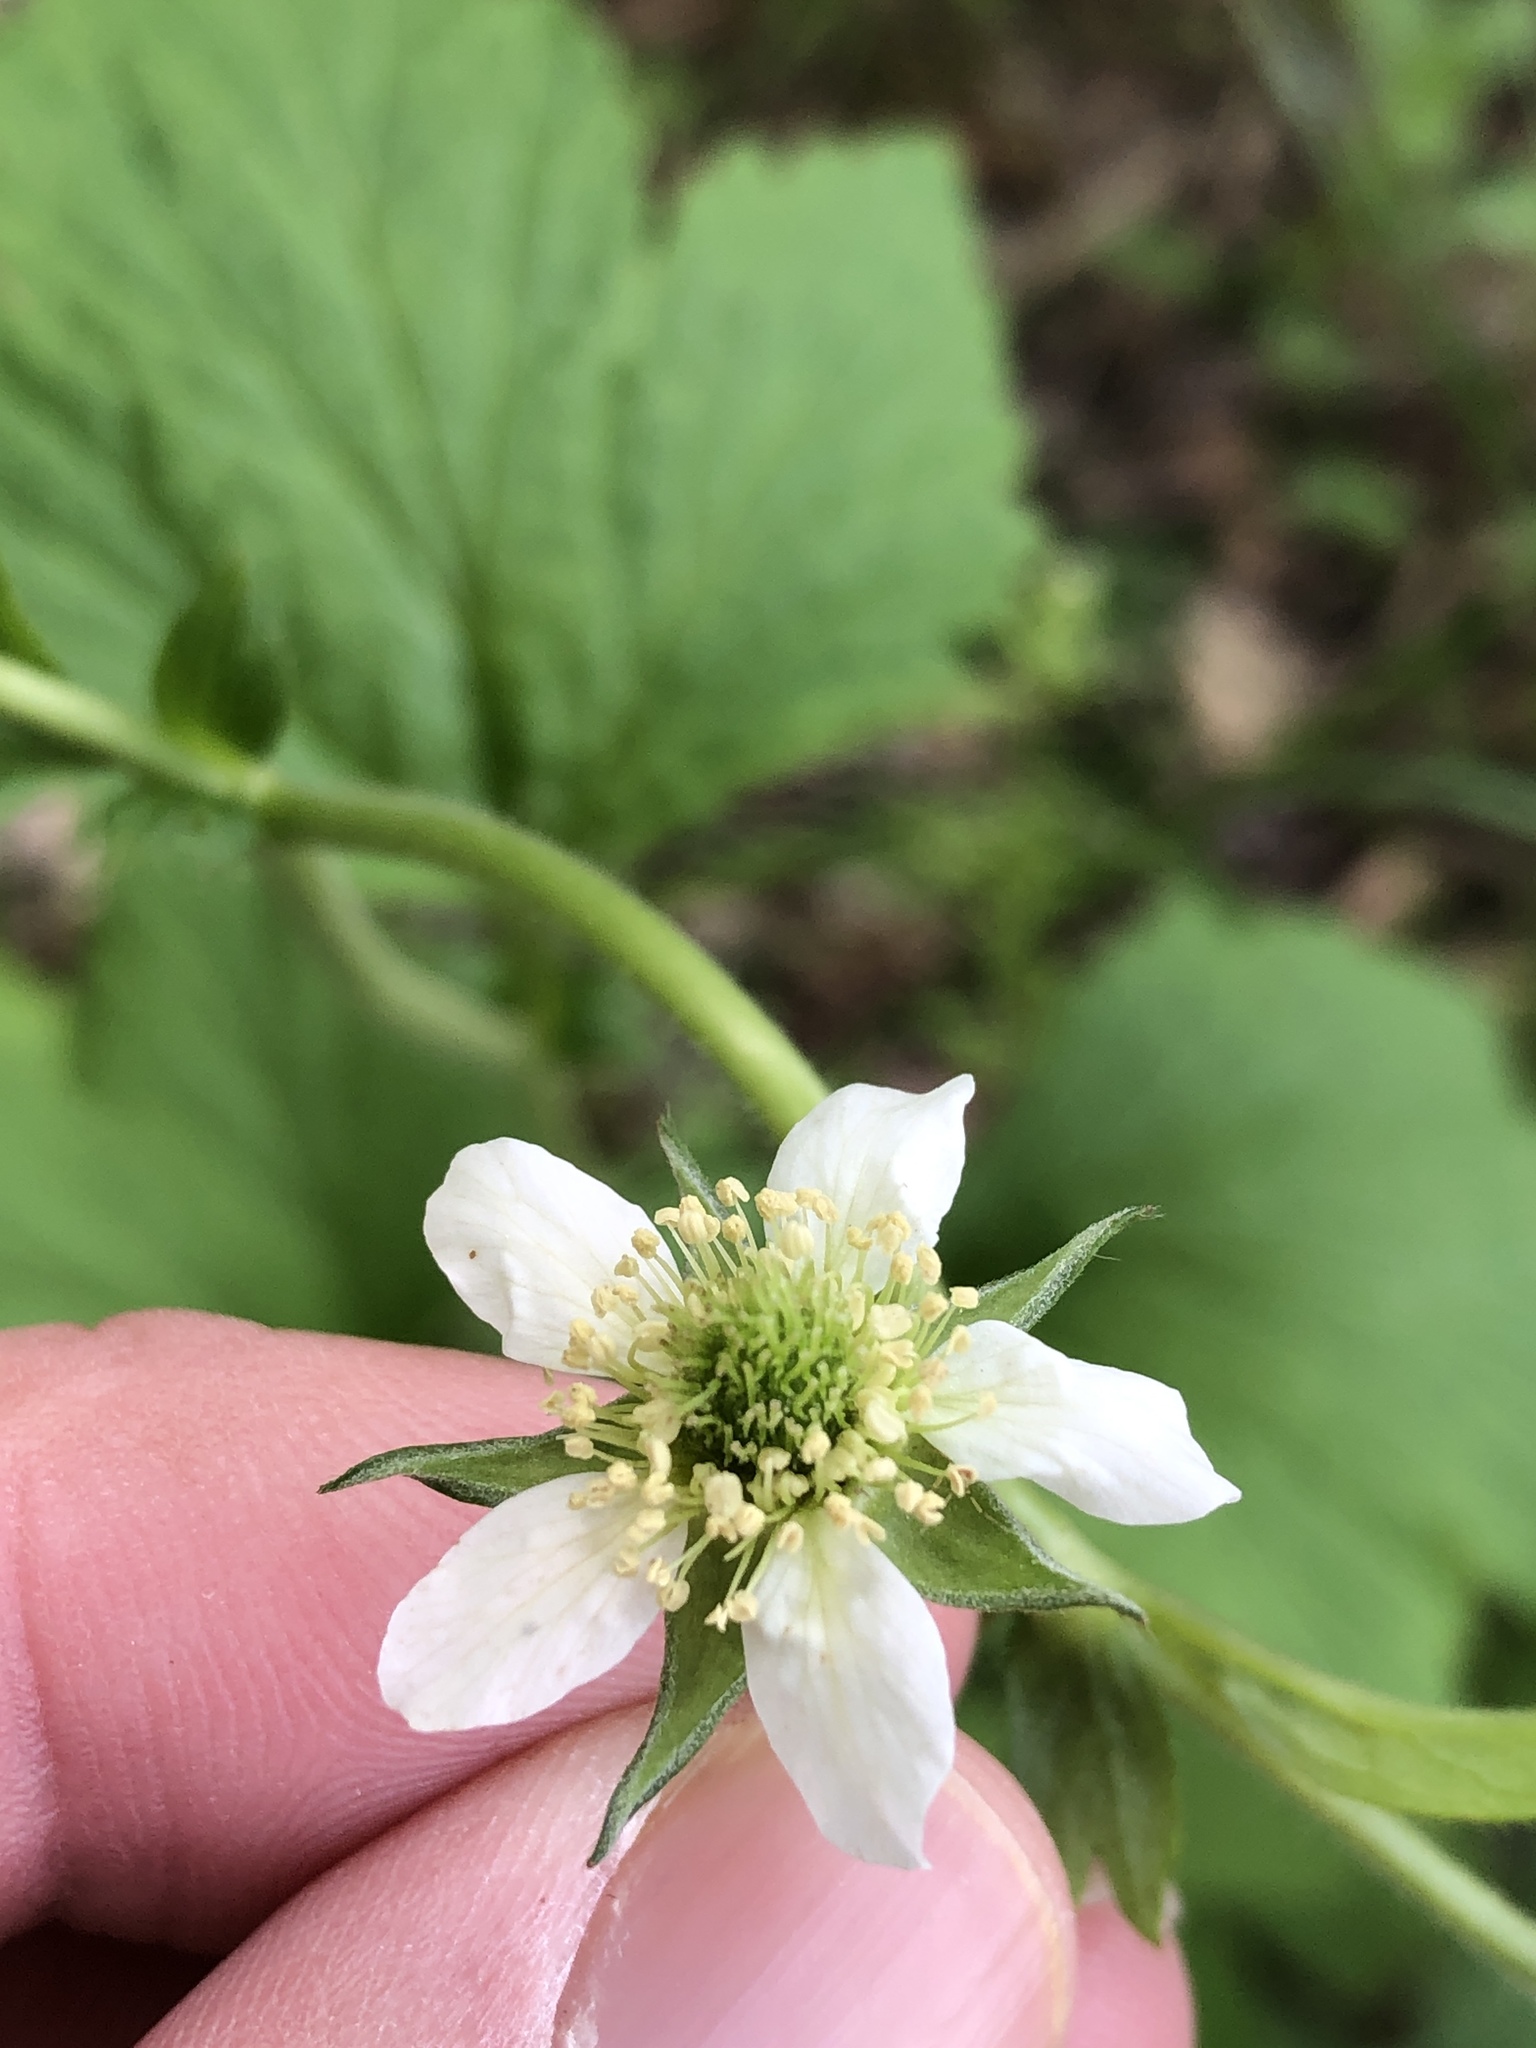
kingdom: Plantae
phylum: Tracheophyta
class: Magnoliopsida
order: Rosales
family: Rosaceae
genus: Geum
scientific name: Geum canadense
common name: White avens
